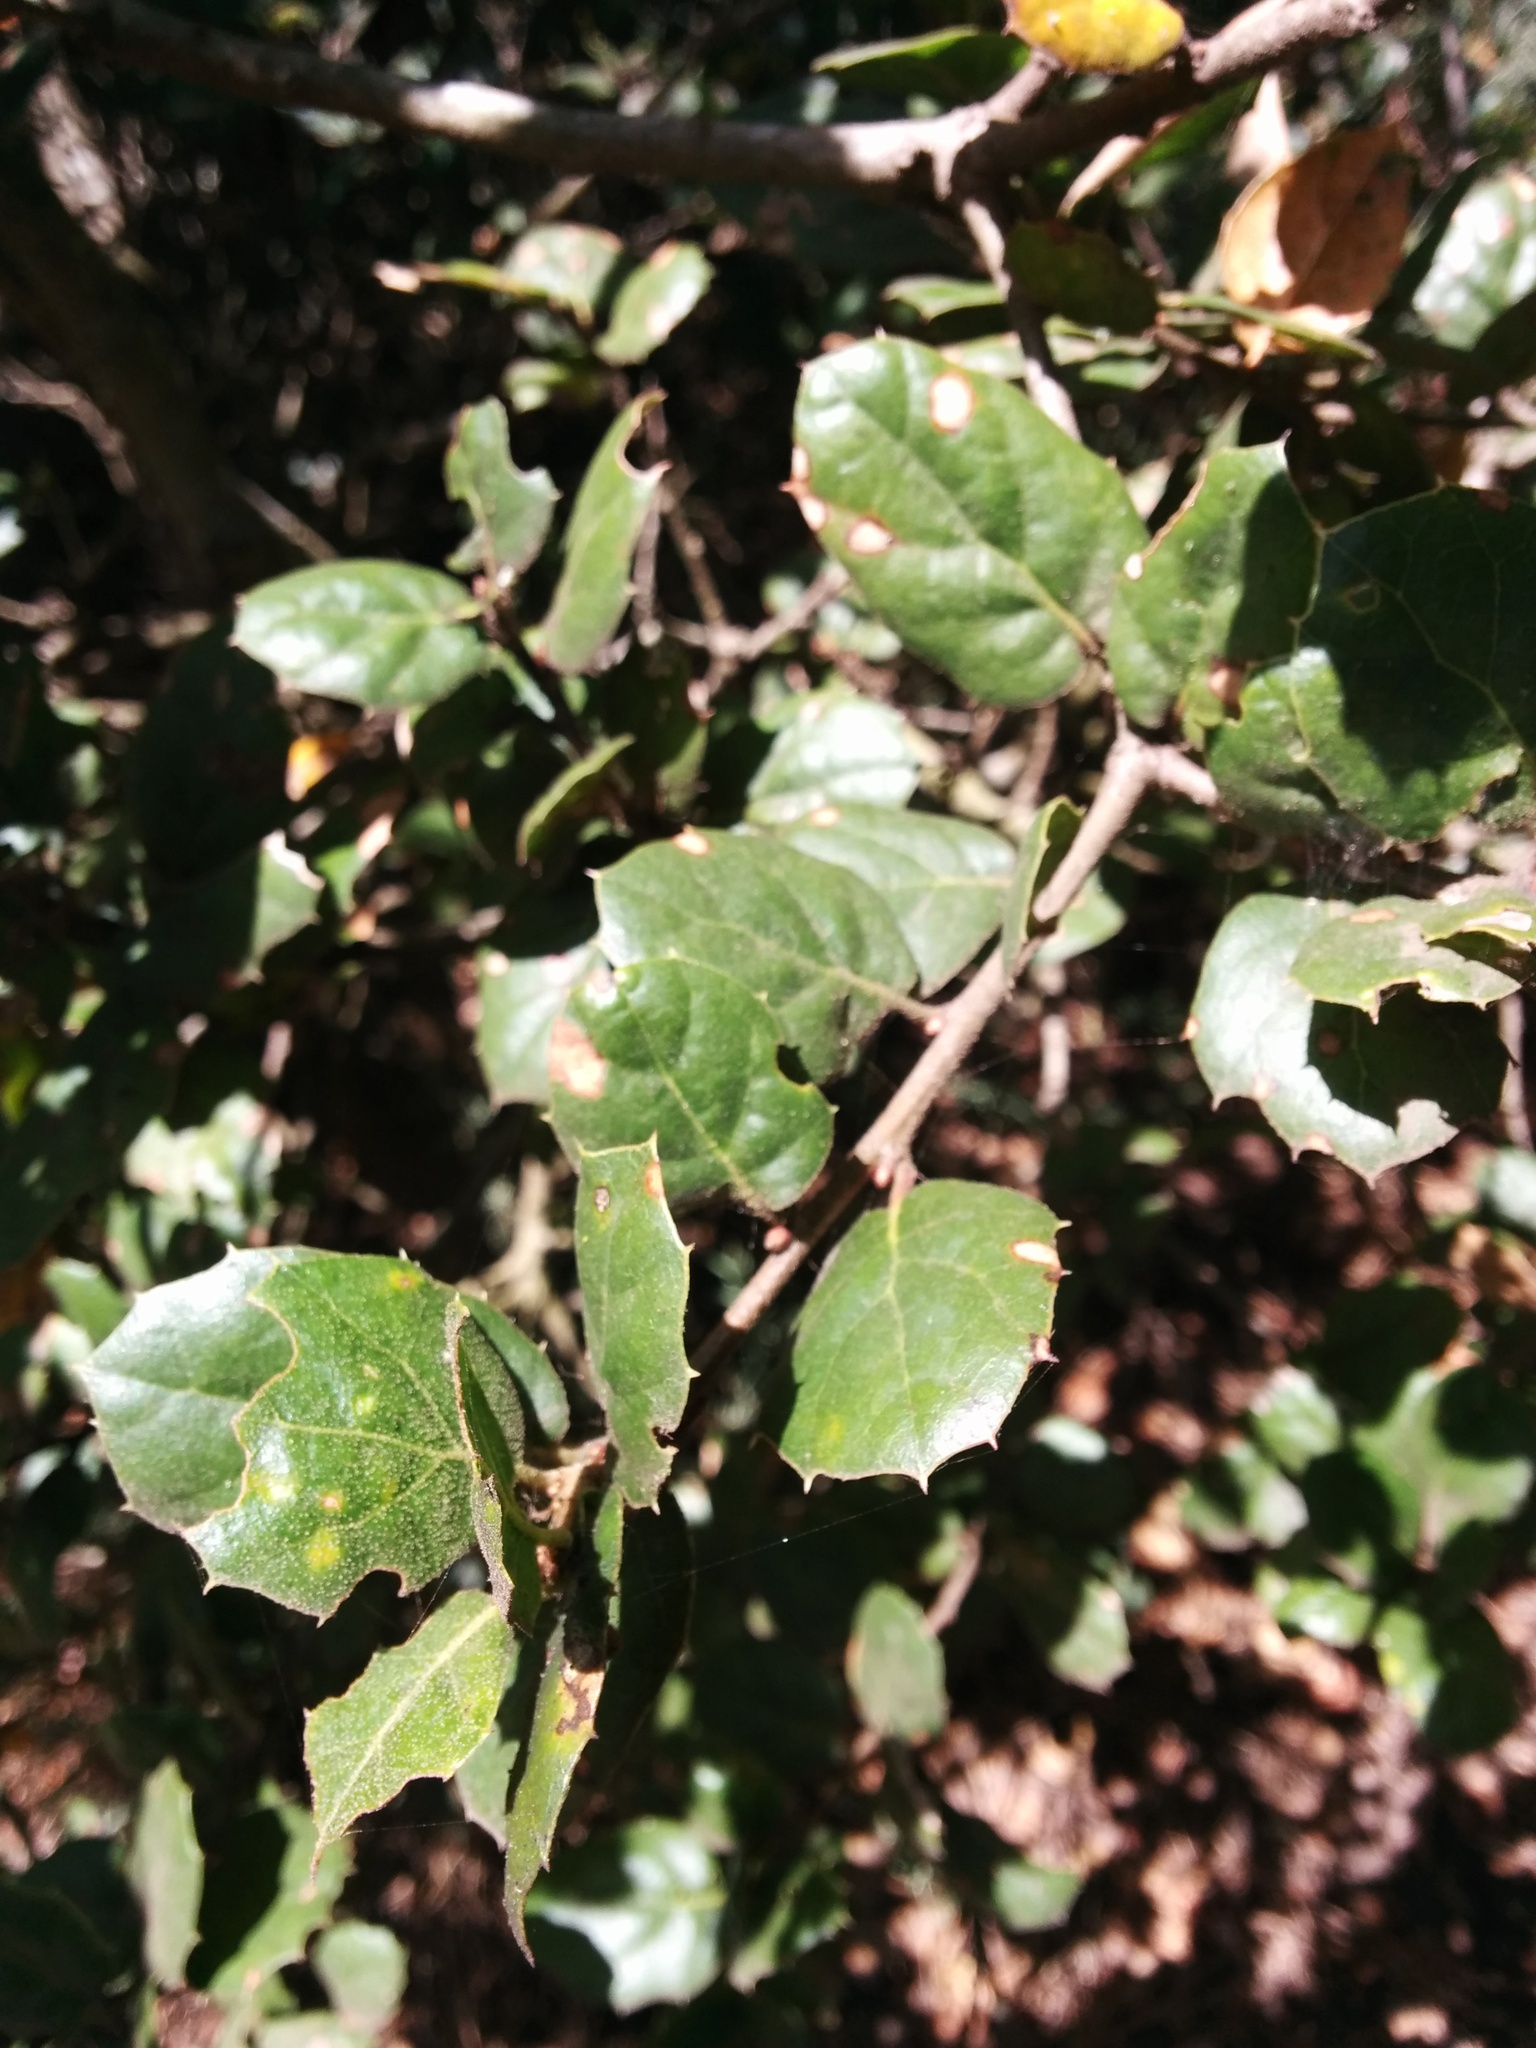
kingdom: Plantae
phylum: Tracheophyta
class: Magnoliopsida
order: Fagales
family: Fagaceae
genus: Quercus
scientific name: Quercus agrifolia
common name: California live oak
